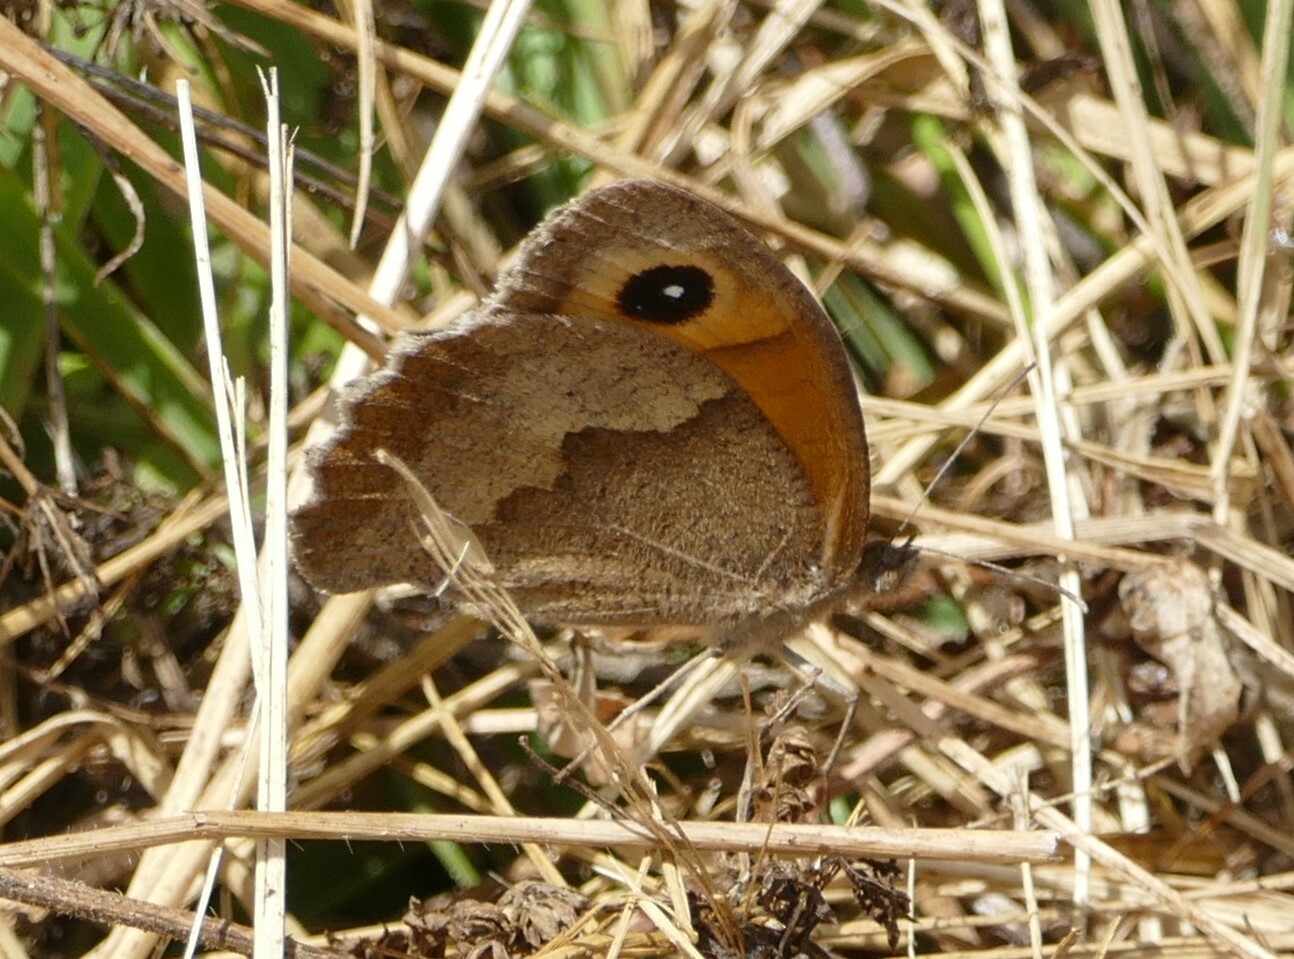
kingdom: Animalia
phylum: Arthropoda
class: Insecta
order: Lepidoptera
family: Nymphalidae
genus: Maniola
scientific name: Maniola jurtina
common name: Meadow brown
